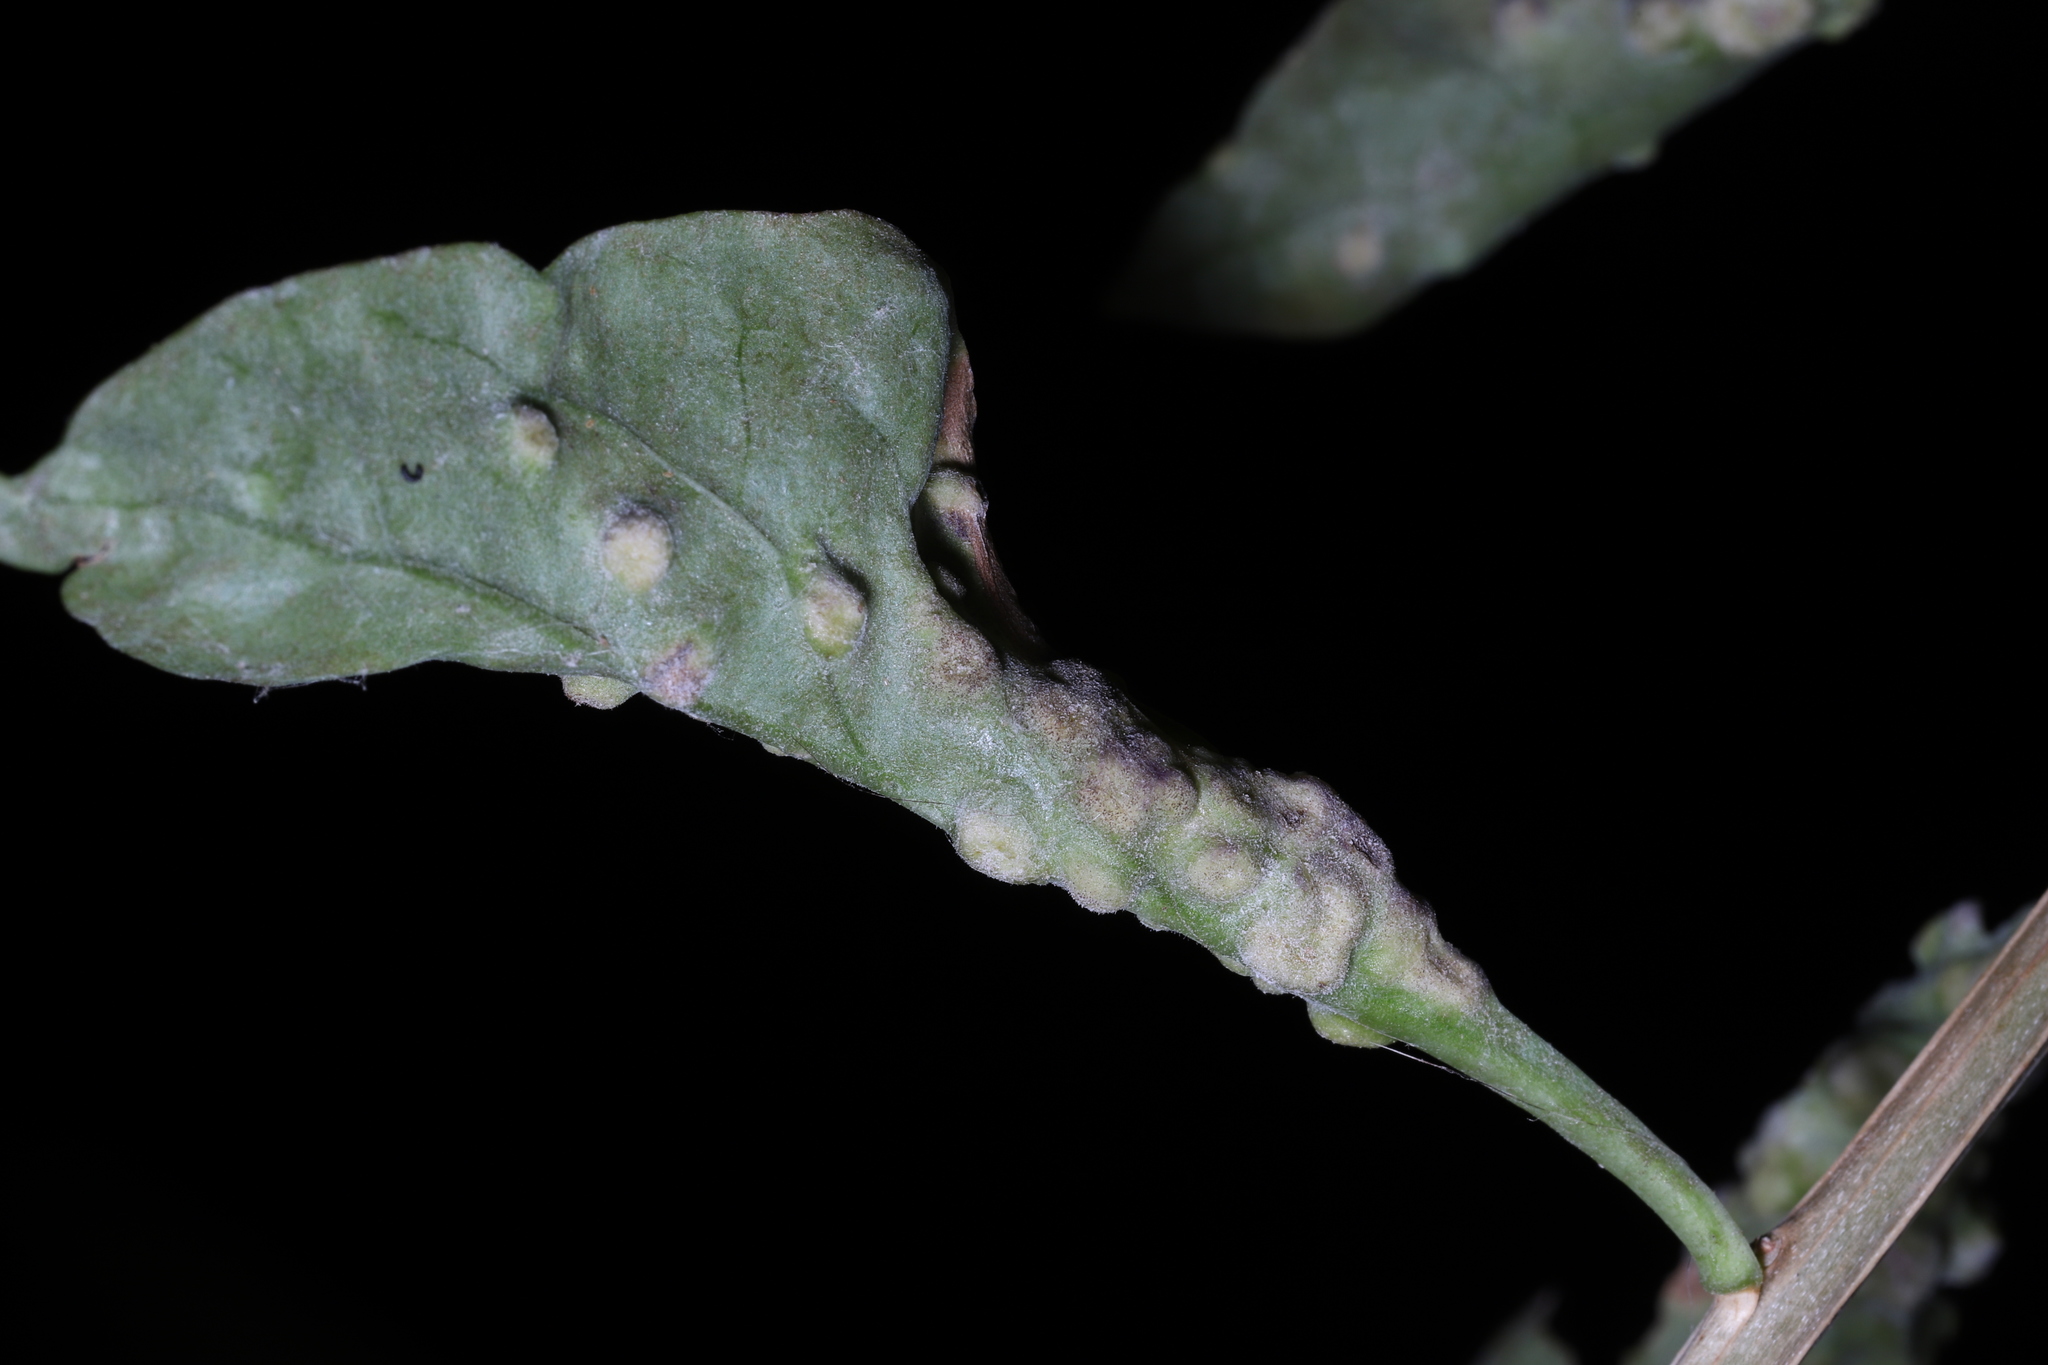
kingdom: Animalia
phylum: Arthropoda
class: Arachnida
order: Trombidiformes
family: Eriophyidae
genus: Aceria
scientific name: Aceria kuko
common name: Goji gall mite
